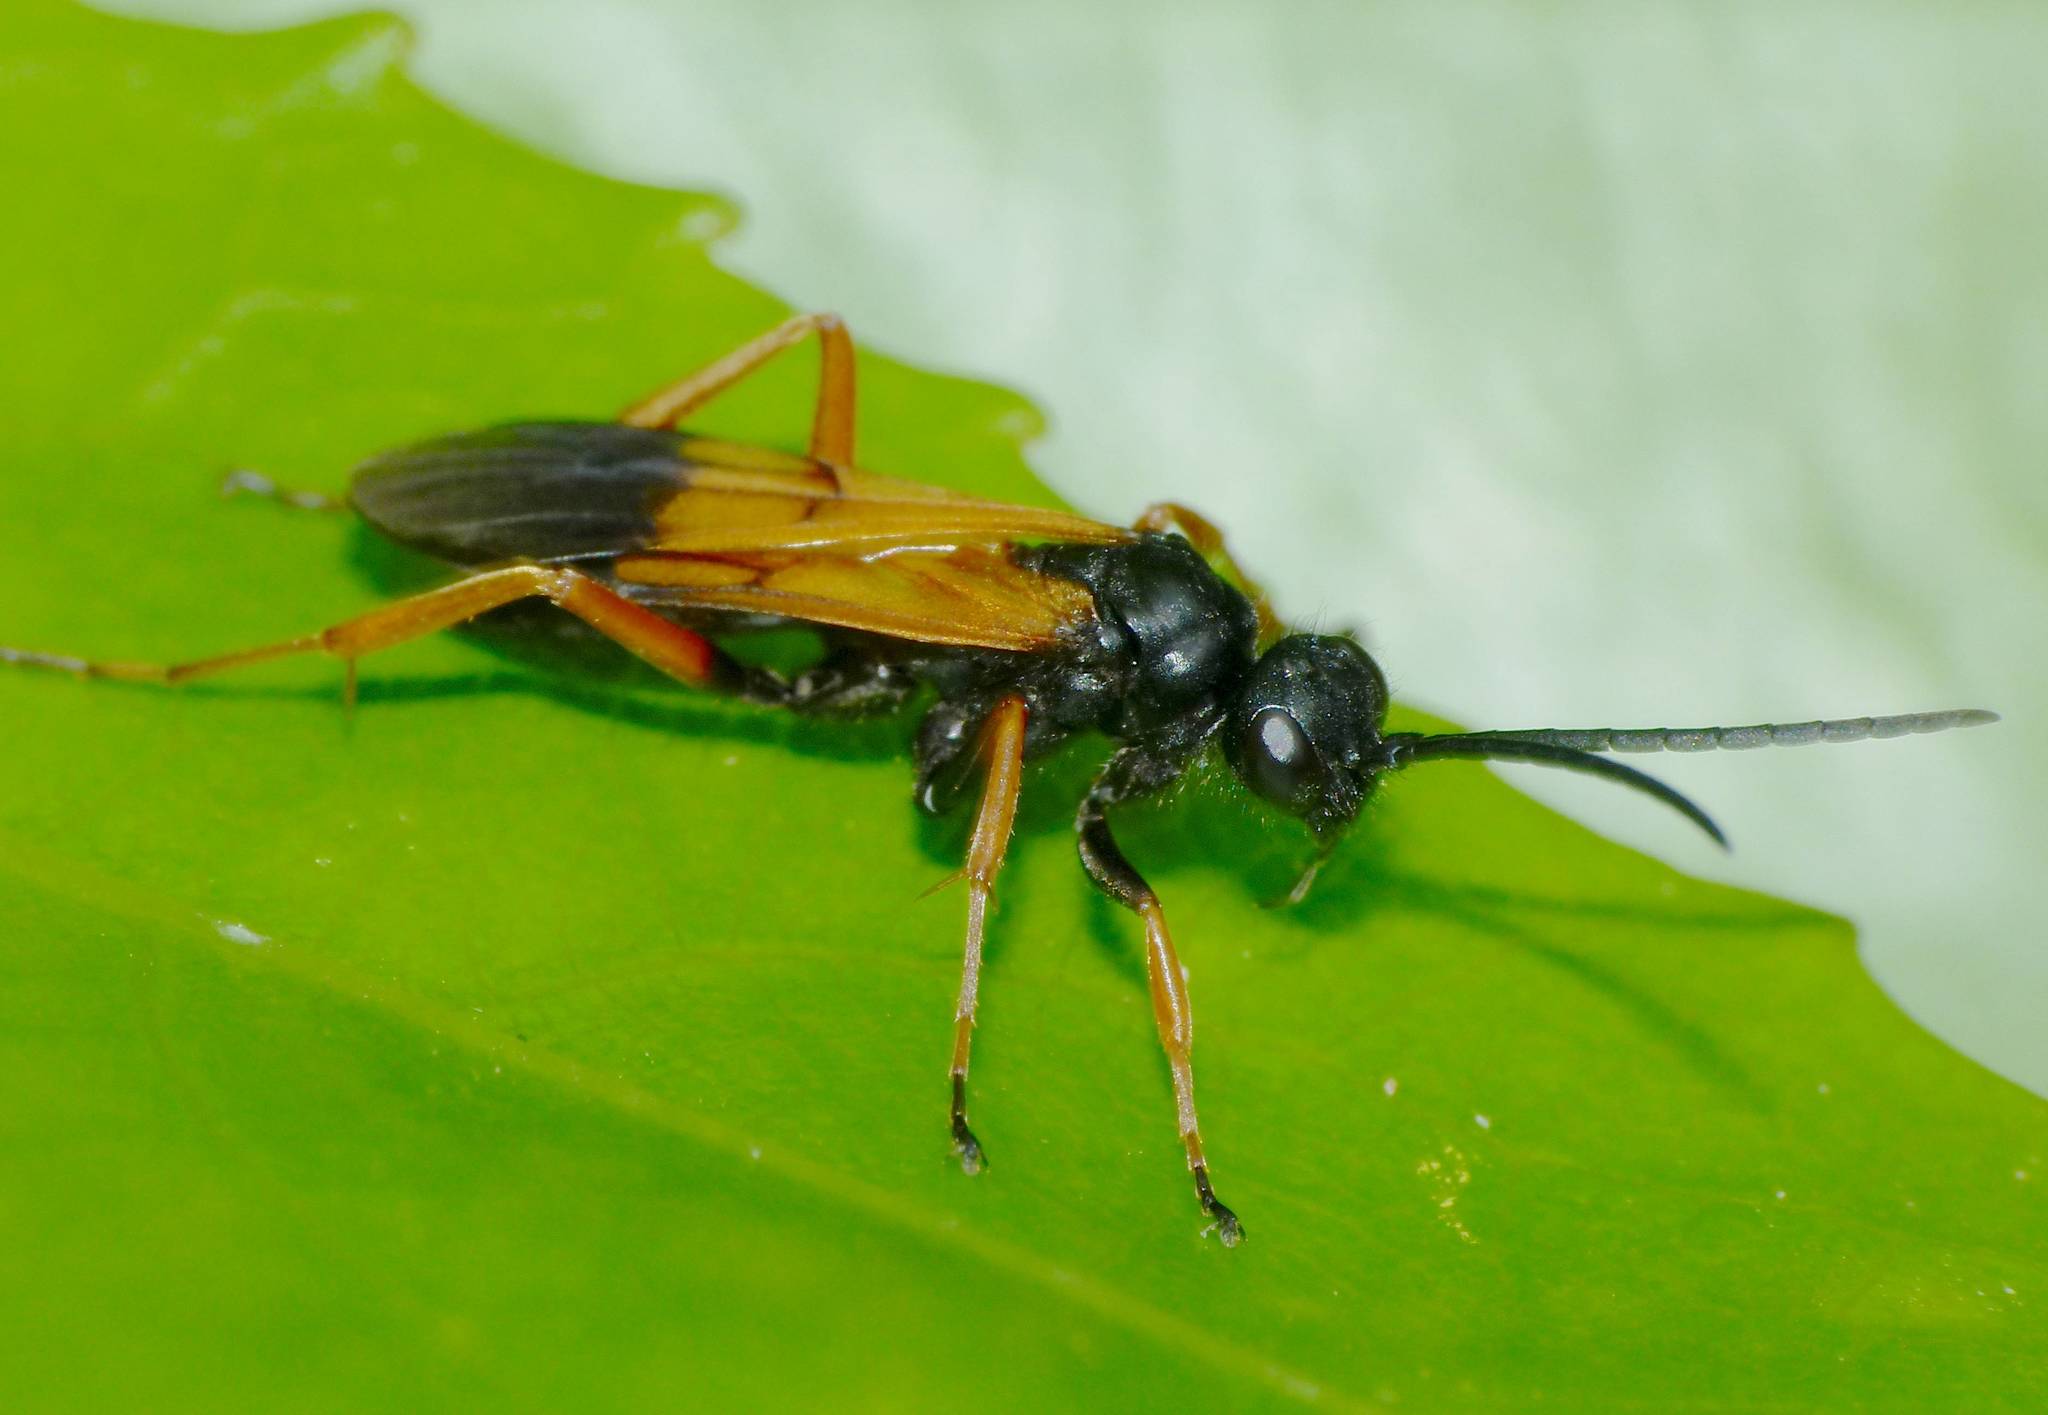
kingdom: Animalia
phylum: Arthropoda
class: Insecta
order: Hymenoptera
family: Pompilidae
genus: Priocnemis
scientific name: Priocnemis conformis
